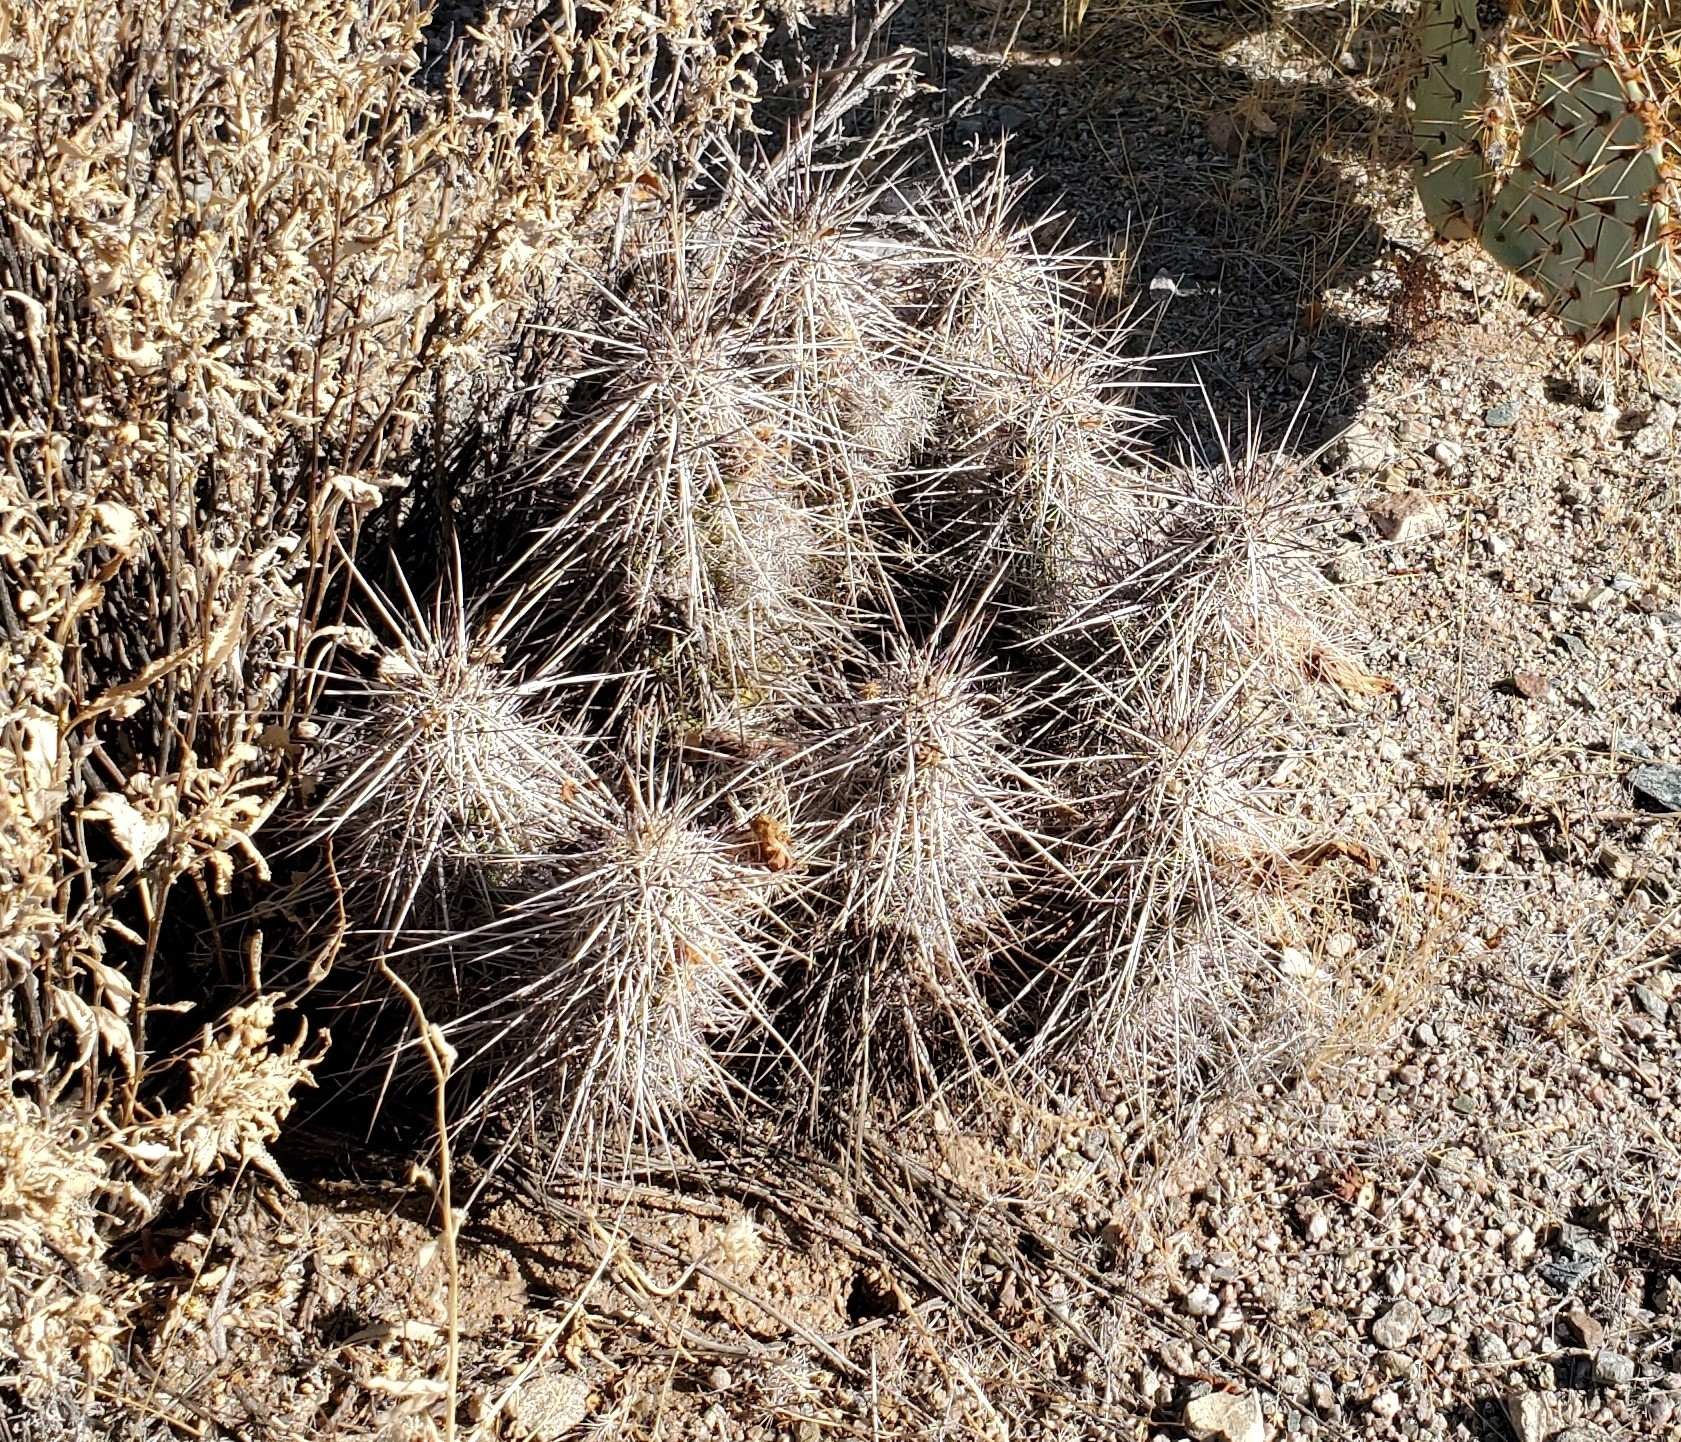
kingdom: Plantae
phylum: Tracheophyta
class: Magnoliopsida
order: Caryophyllales
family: Cactaceae
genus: Echinocereus
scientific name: Echinocereus engelmannii
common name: Engelmann's hedgehog cactus
